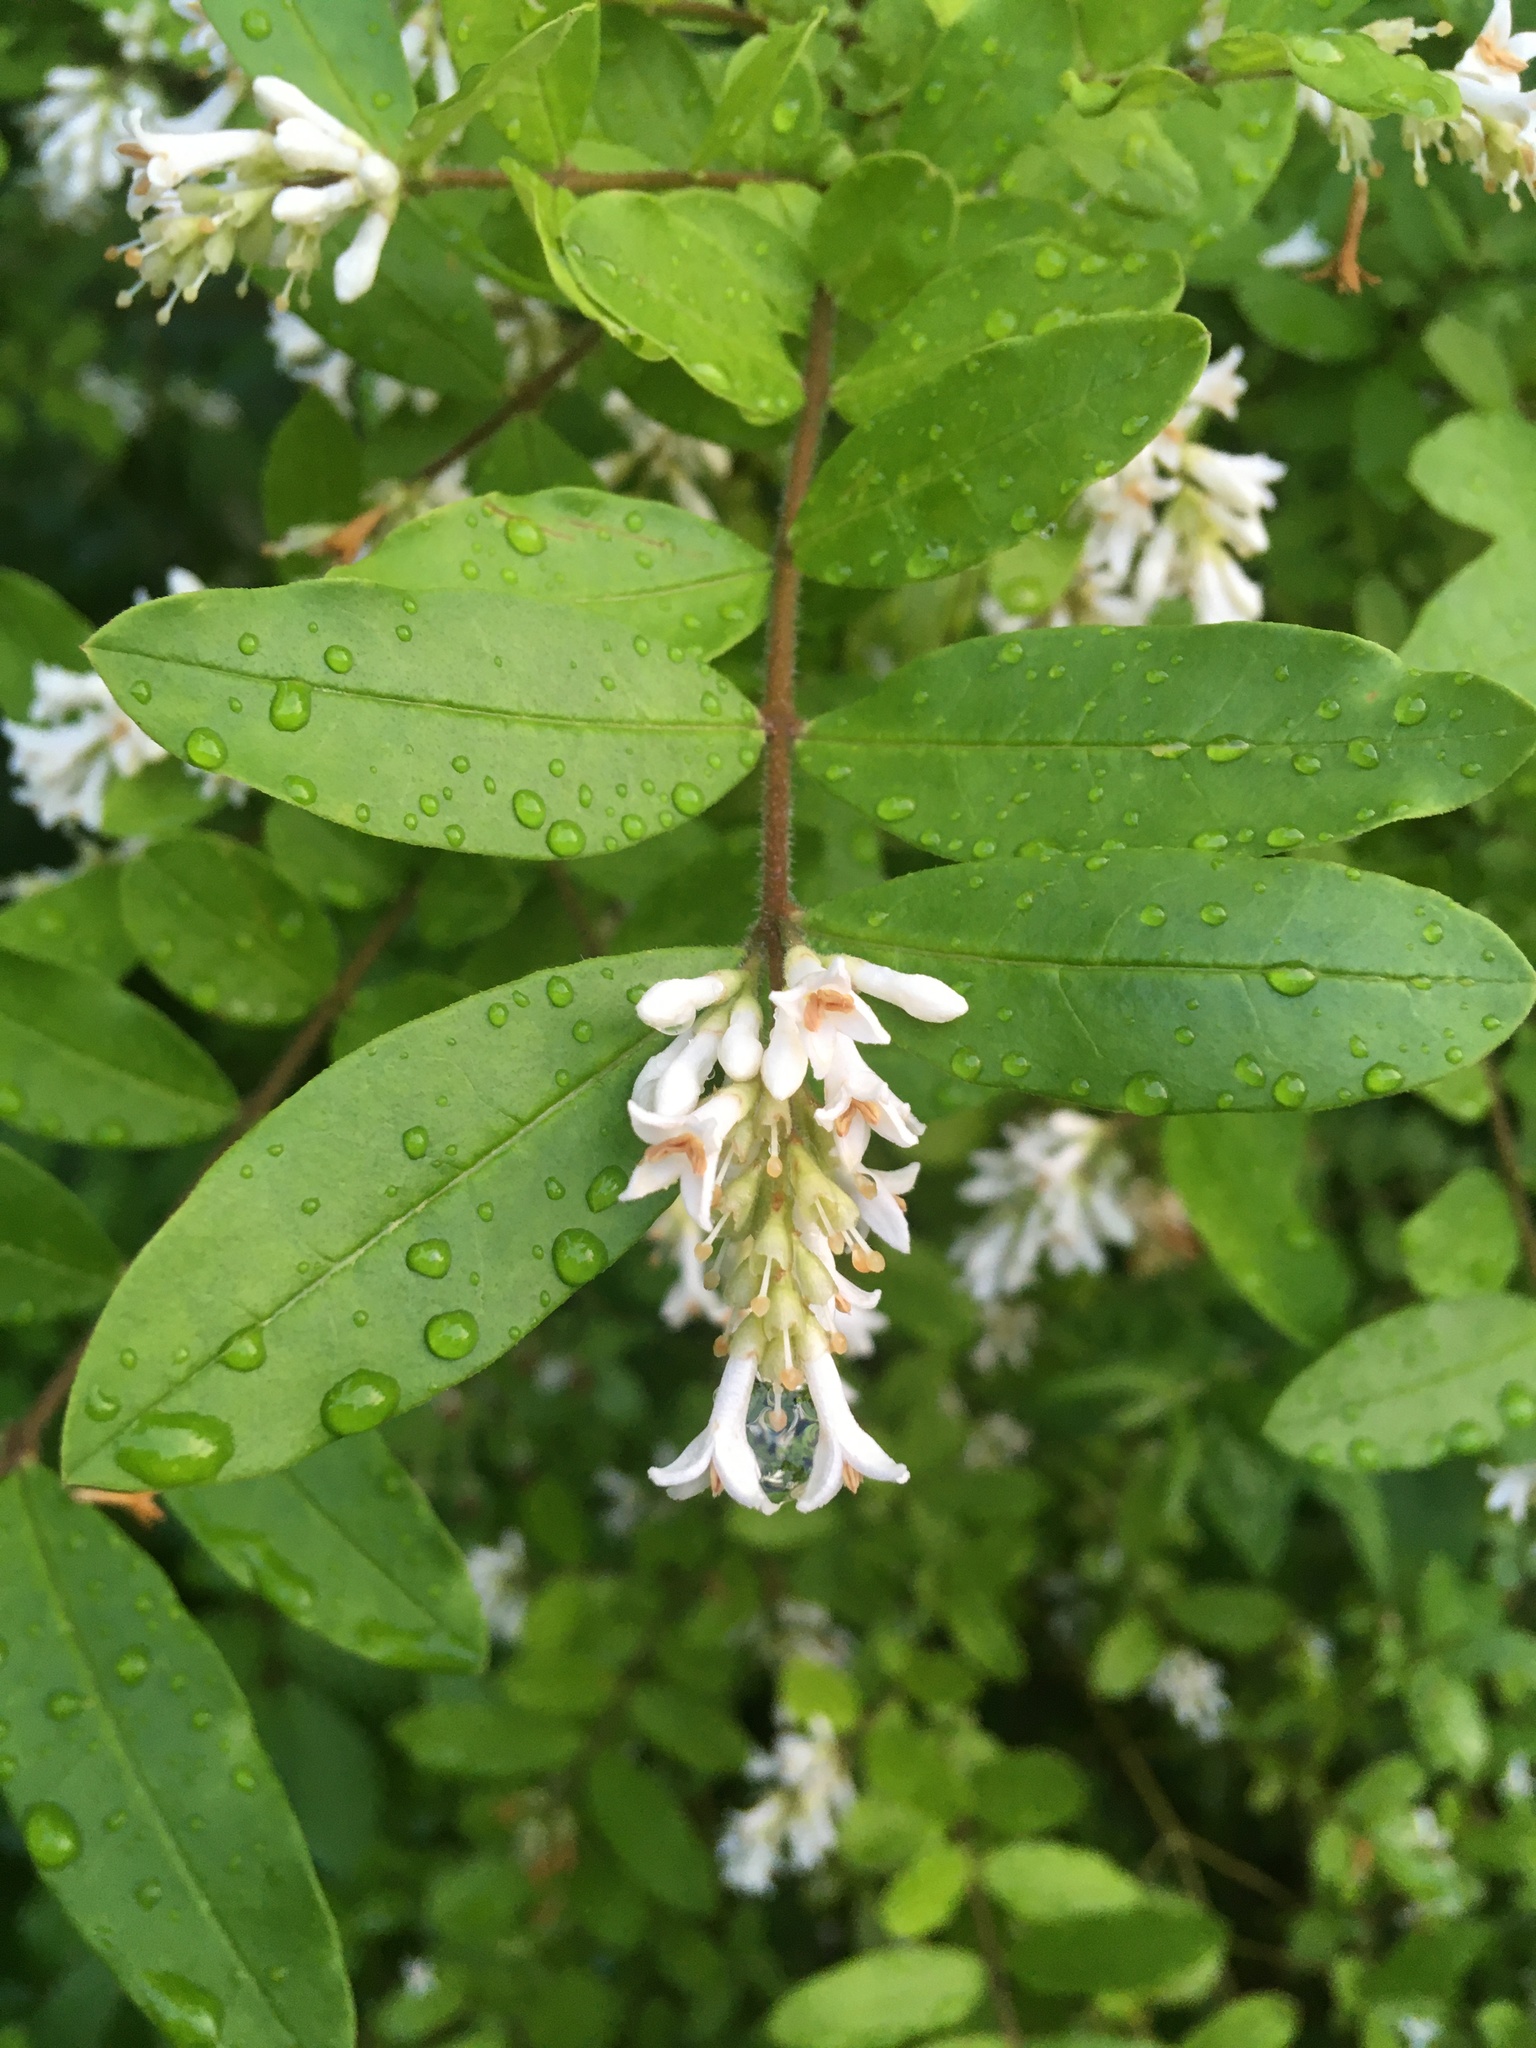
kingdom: Plantae
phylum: Tracheophyta
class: Magnoliopsida
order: Lamiales
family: Oleaceae
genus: Ligustrum
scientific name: Ligustrum obtusifolium
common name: Border privet
